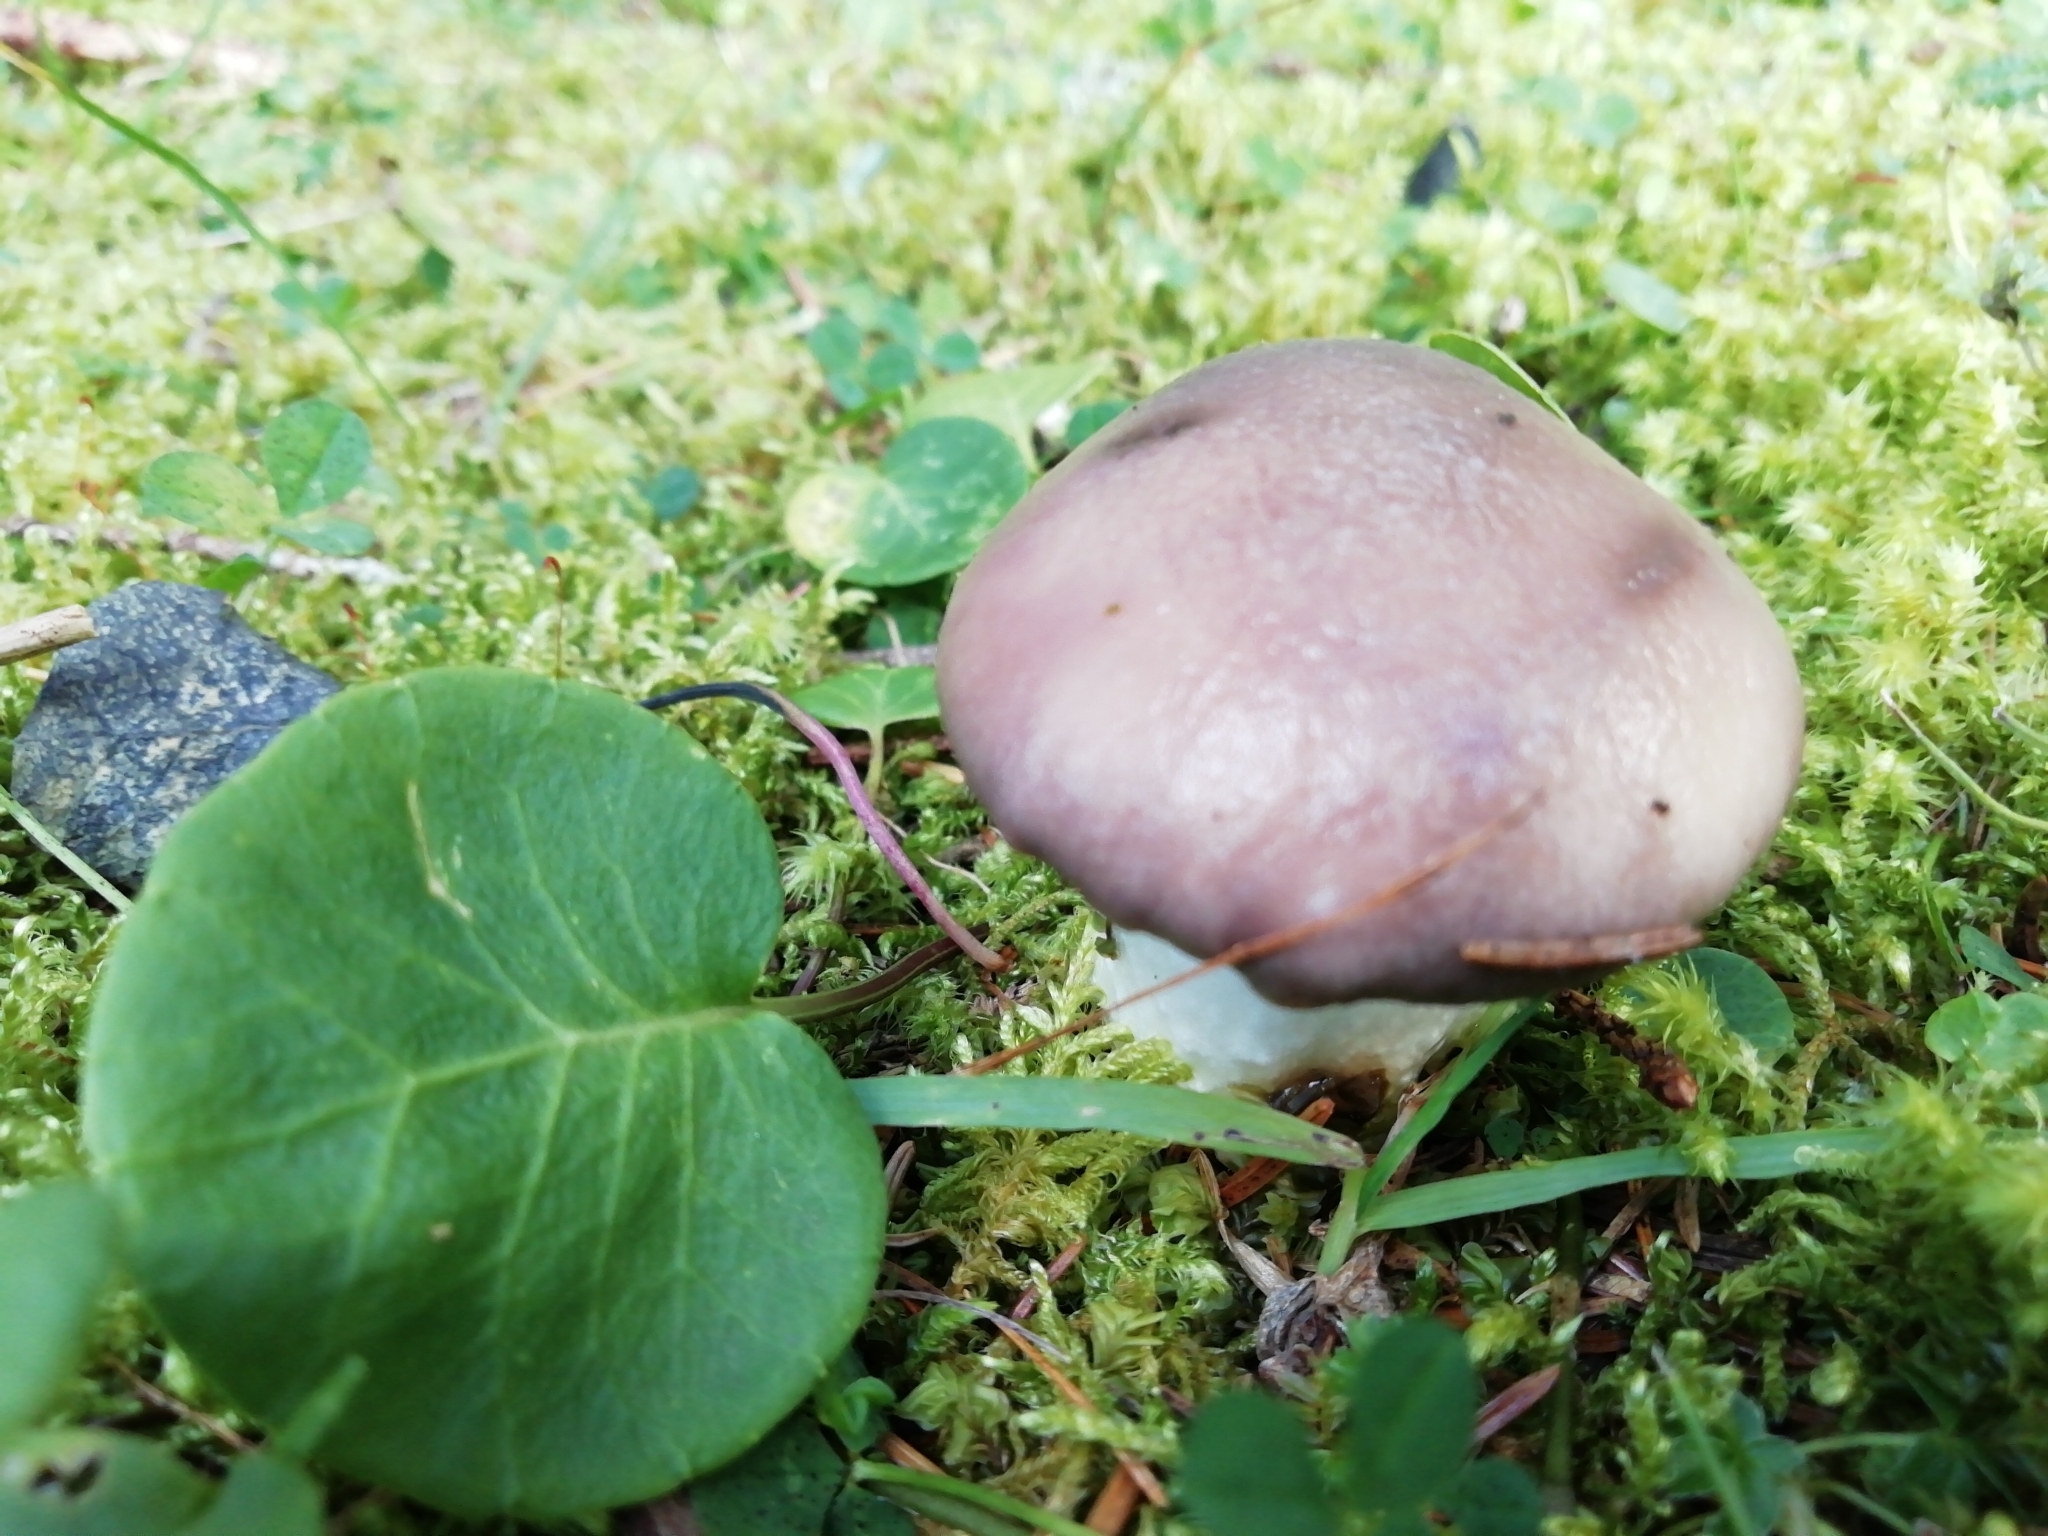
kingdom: Fungi
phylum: Basidiomycota
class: Agaricomycetes
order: Boletales
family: Gomphidiaceae
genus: Gomphidius
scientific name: Gomphidius glutinosus
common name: Slimy spike
